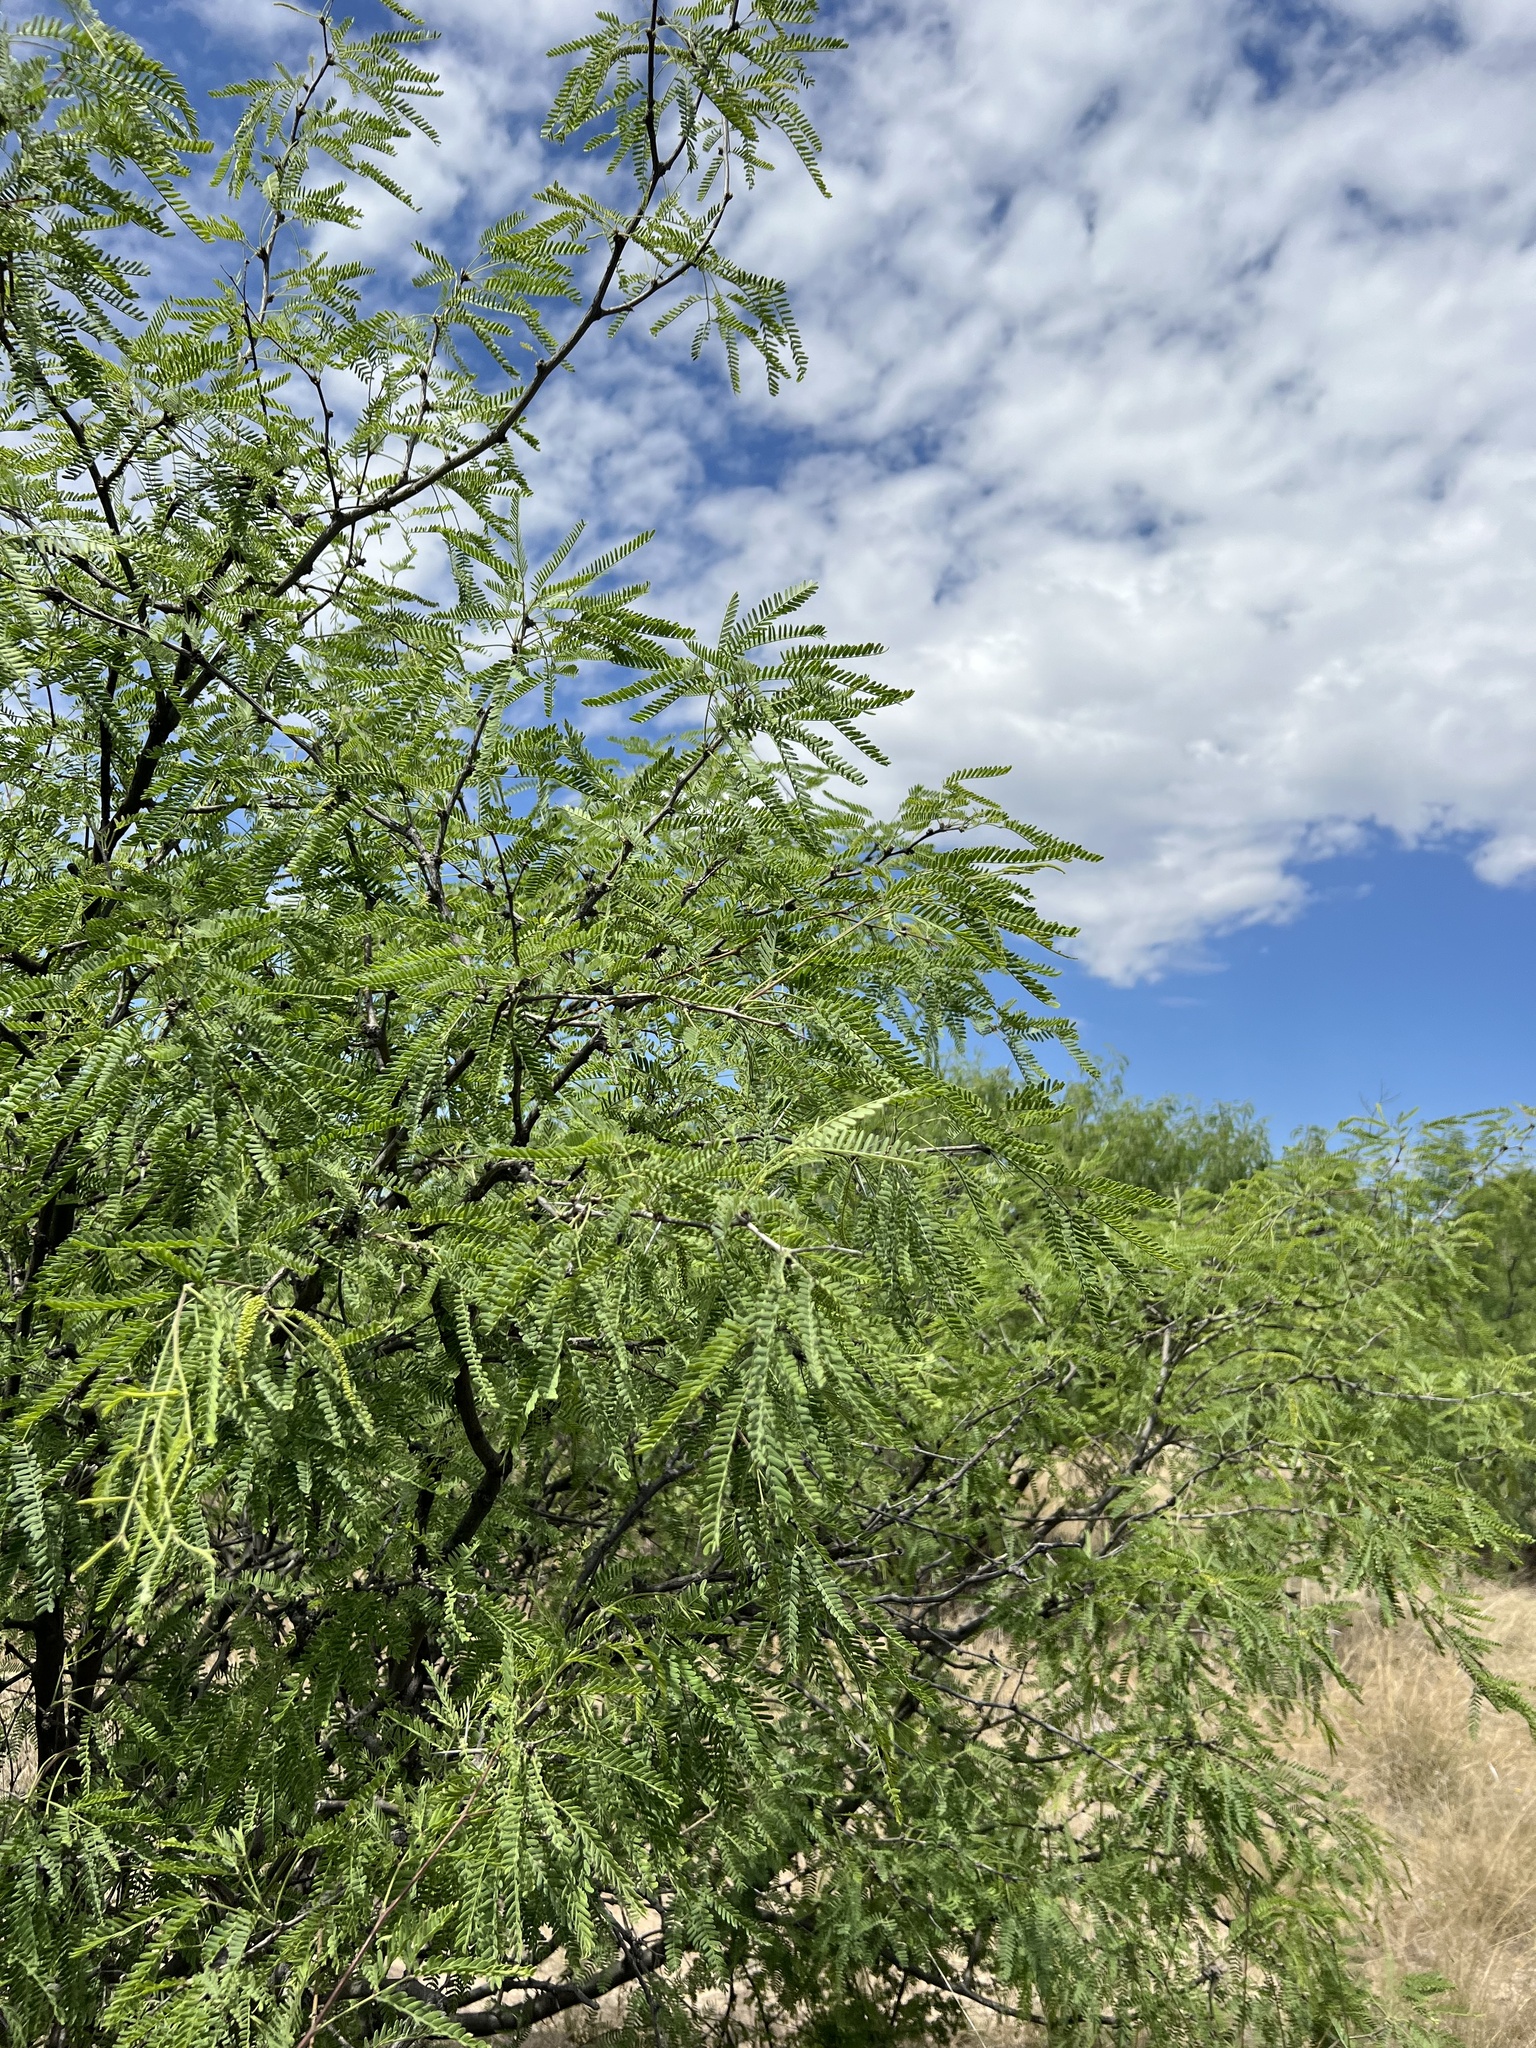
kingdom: Plantae
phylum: Tracheophyta
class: Magnoliopsida
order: Fabales
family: Fabaceae
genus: Prosopis
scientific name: Prosopis velutina
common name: Velvet mesquite
